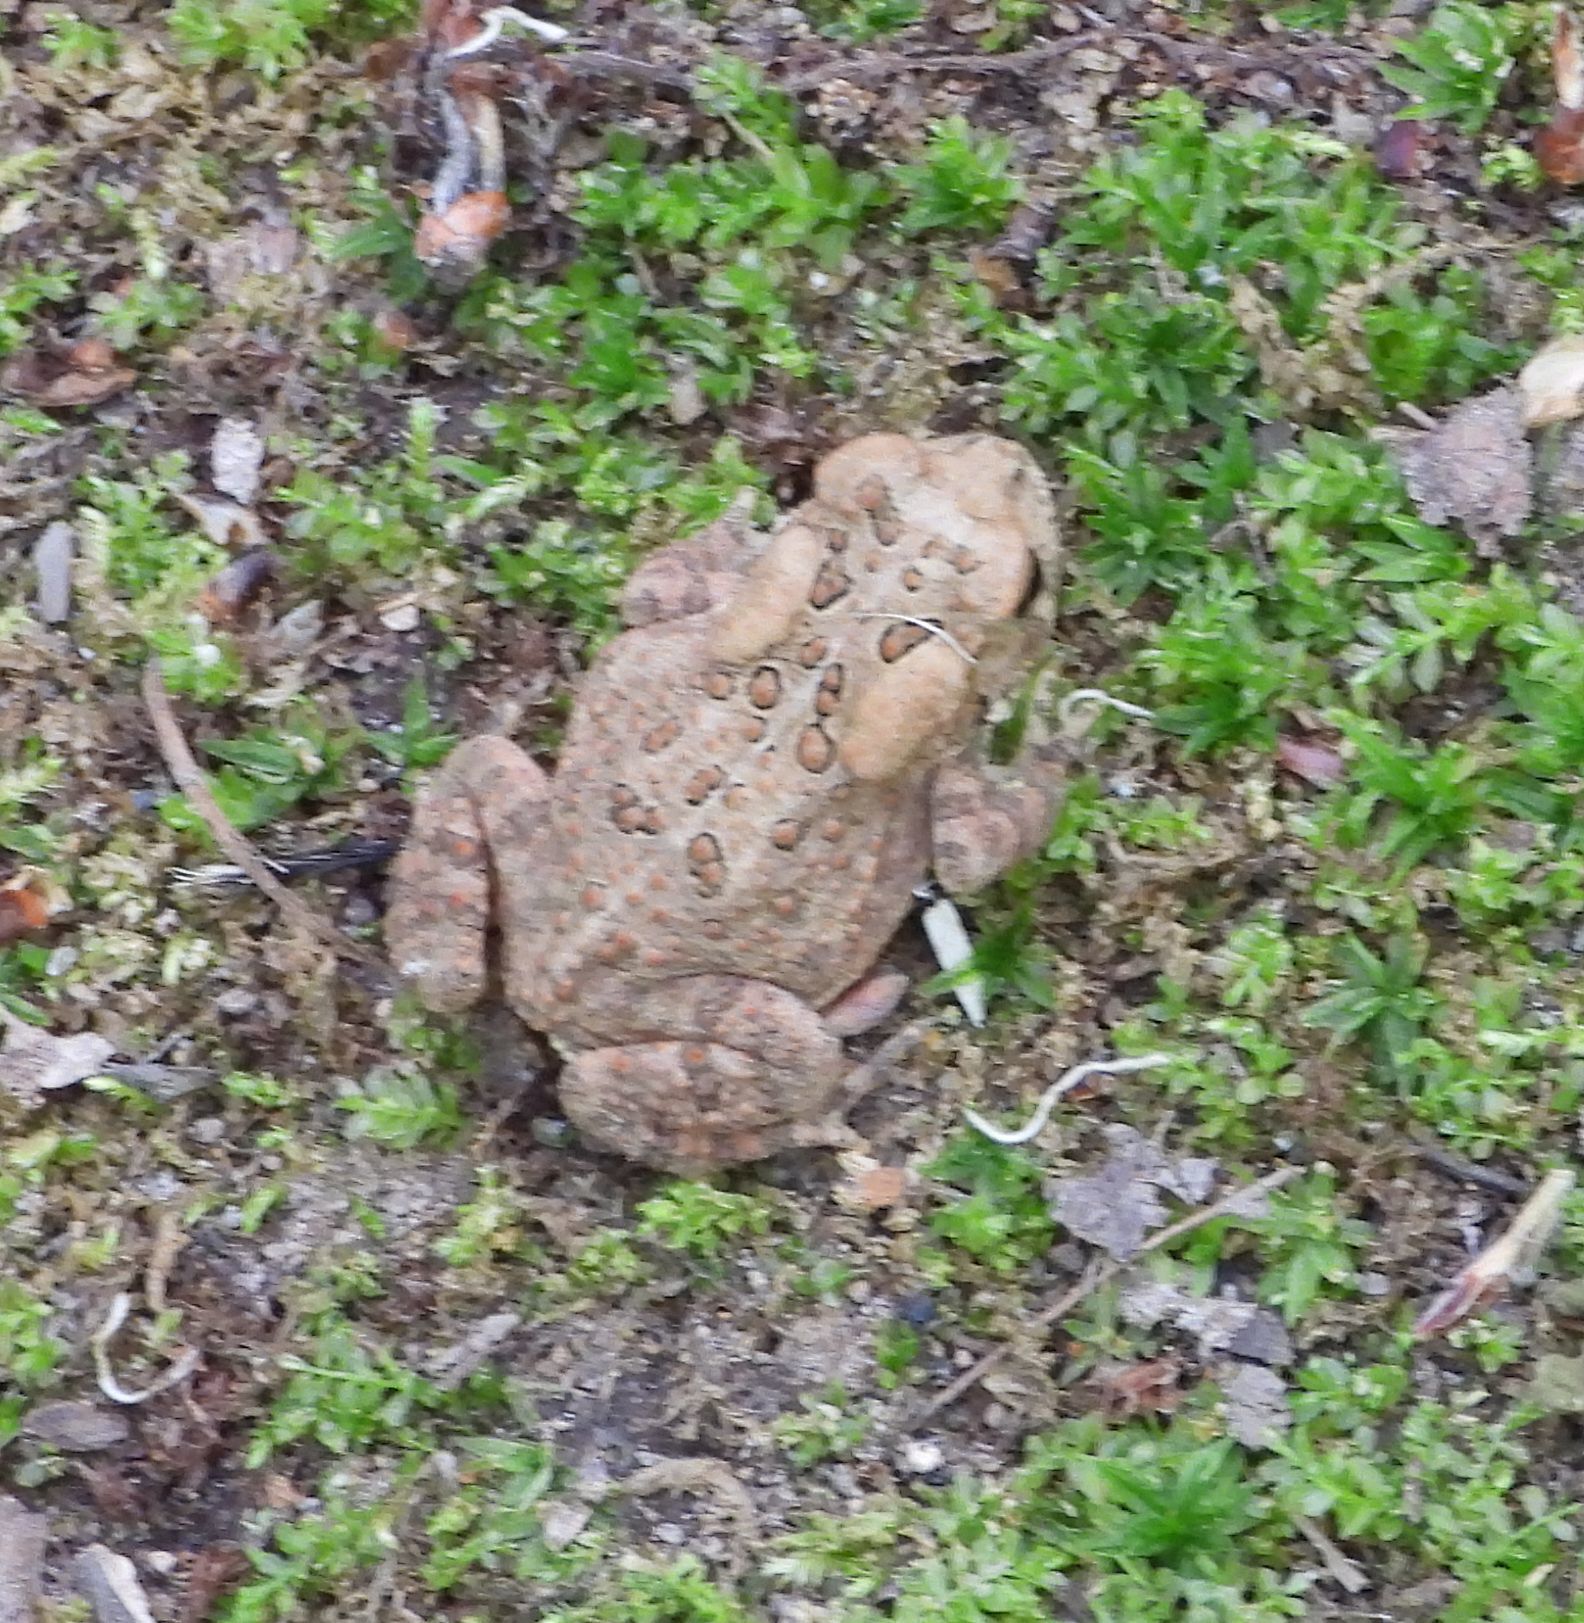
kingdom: Animalia
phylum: Chordata
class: Amphibia
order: Anura
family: Bufonidae
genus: Anaxyrus
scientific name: Anaxyrus americanus
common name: American toad
